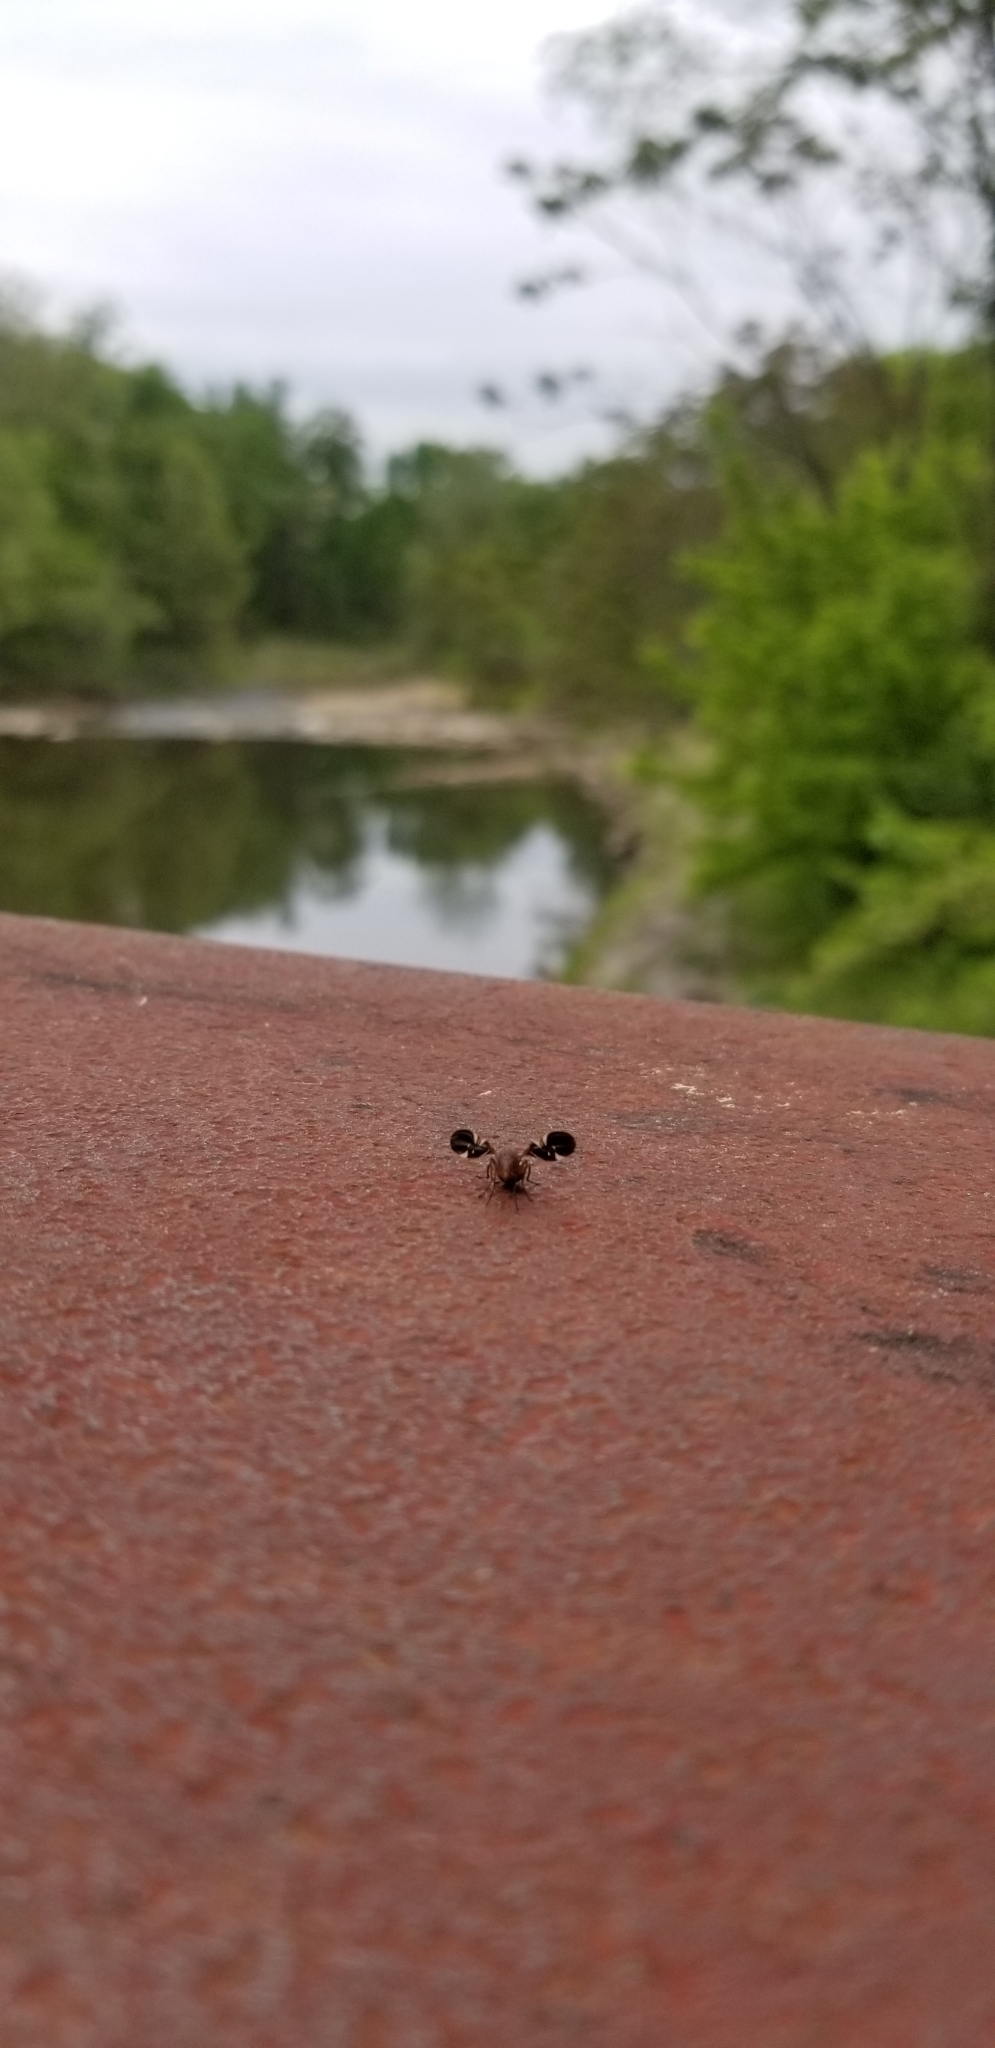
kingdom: Animalia
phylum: Arthropoda
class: Insecta
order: Diptera
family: Ulidiidae
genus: Delphinia
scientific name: Delphinia picta
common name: Common picture-winged fly
